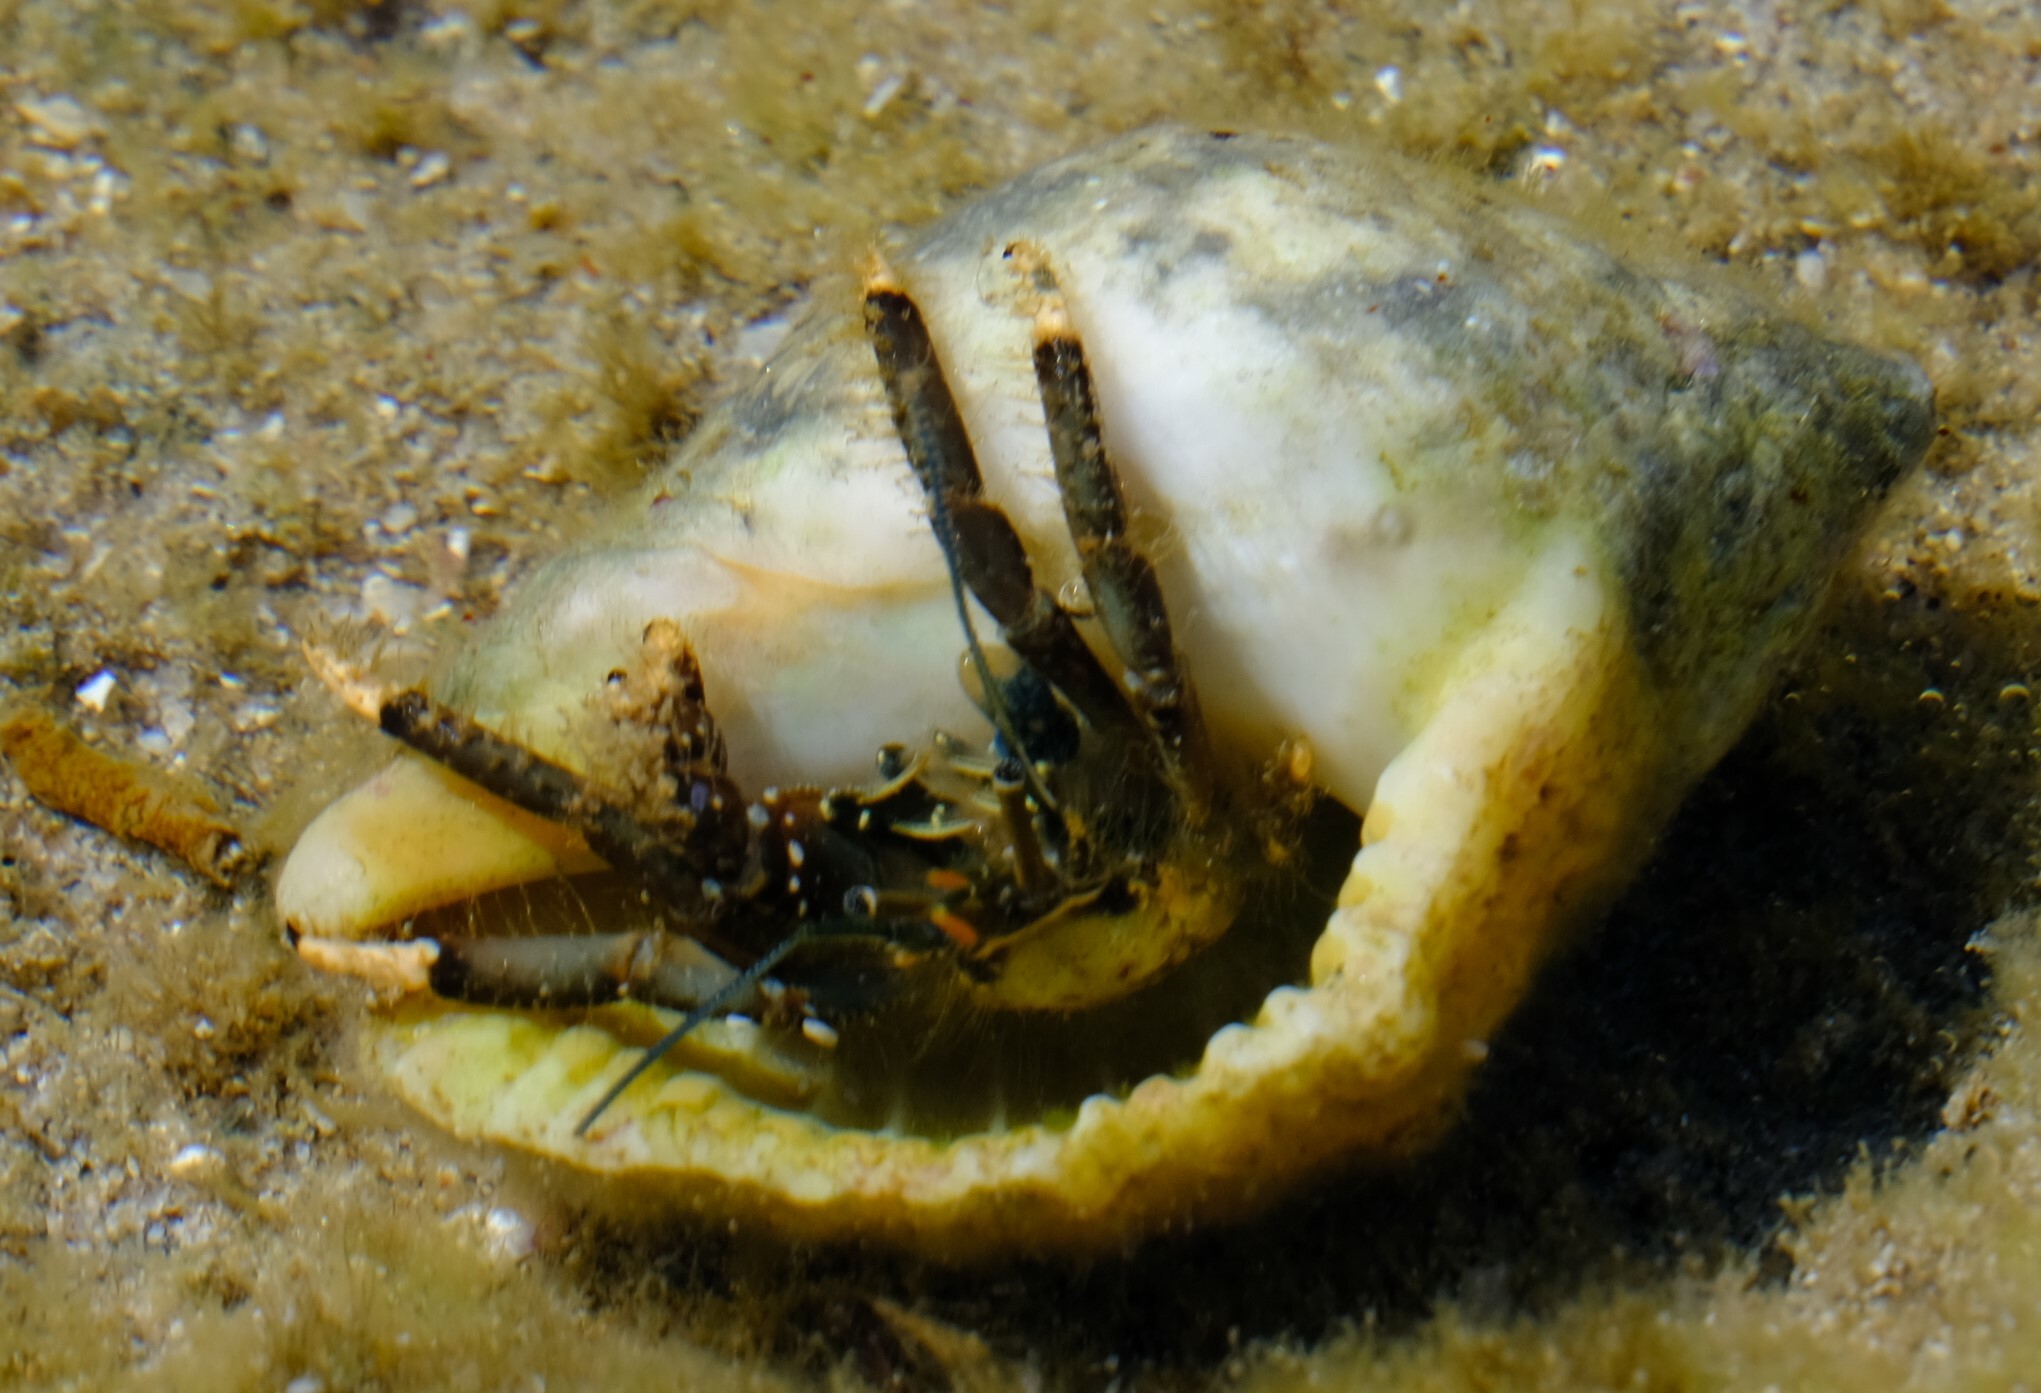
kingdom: Animalia
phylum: Arthropoda
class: Malacostraca
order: Decapoda
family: Diogenidae
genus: Clibanarius
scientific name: Clibanarius virescens
